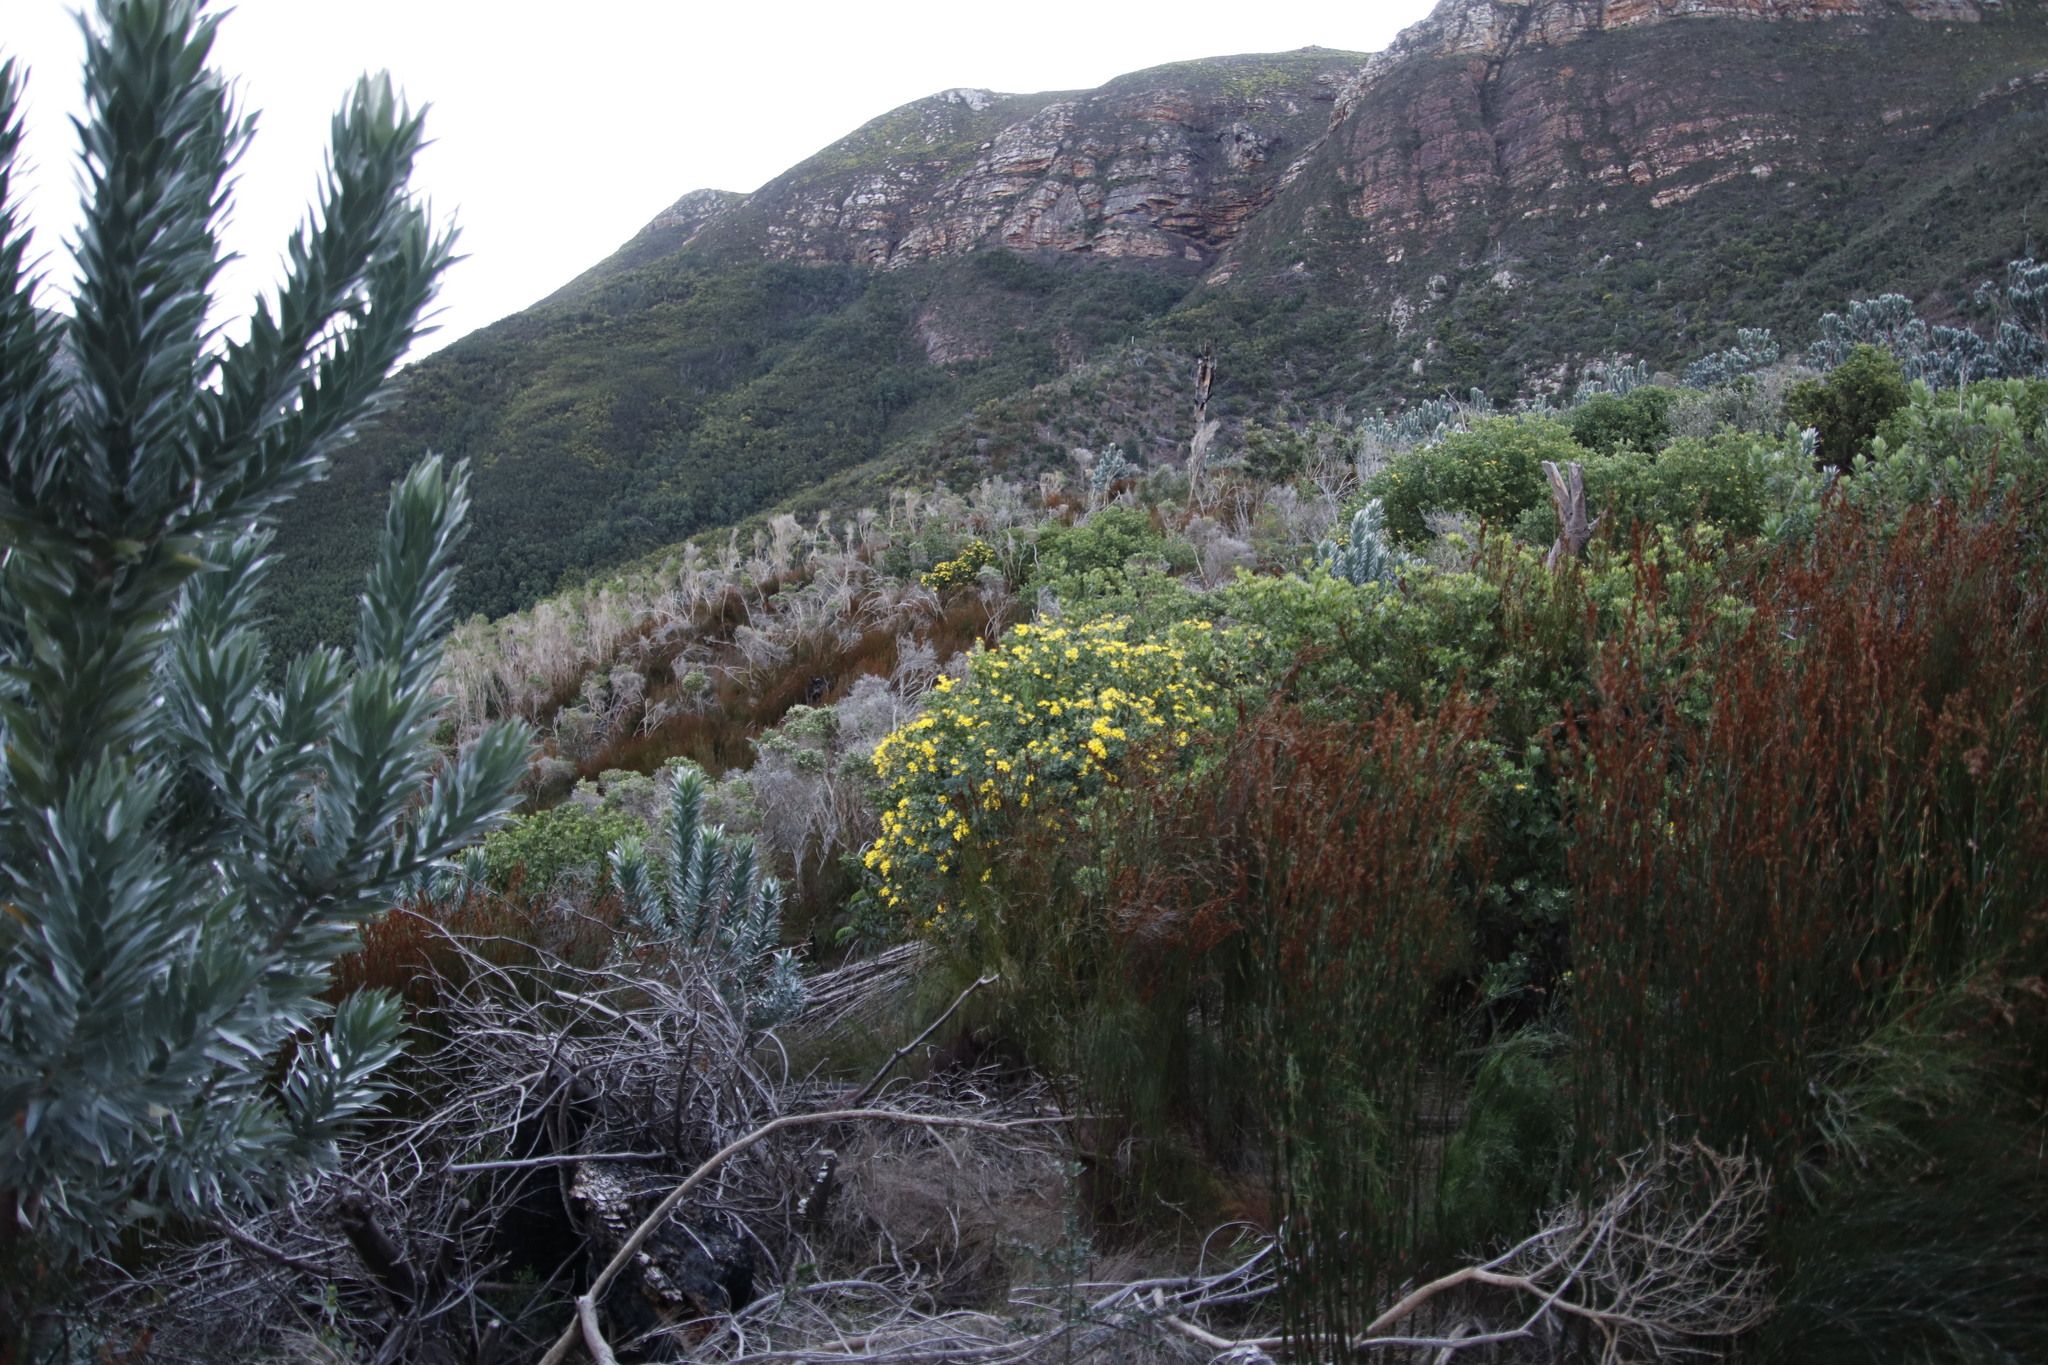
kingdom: Plantae
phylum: Tracheophyta
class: Magnoliopsida
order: Asterales
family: Asteraceae
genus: Osteospermum
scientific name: Osteospermum moniliferum
